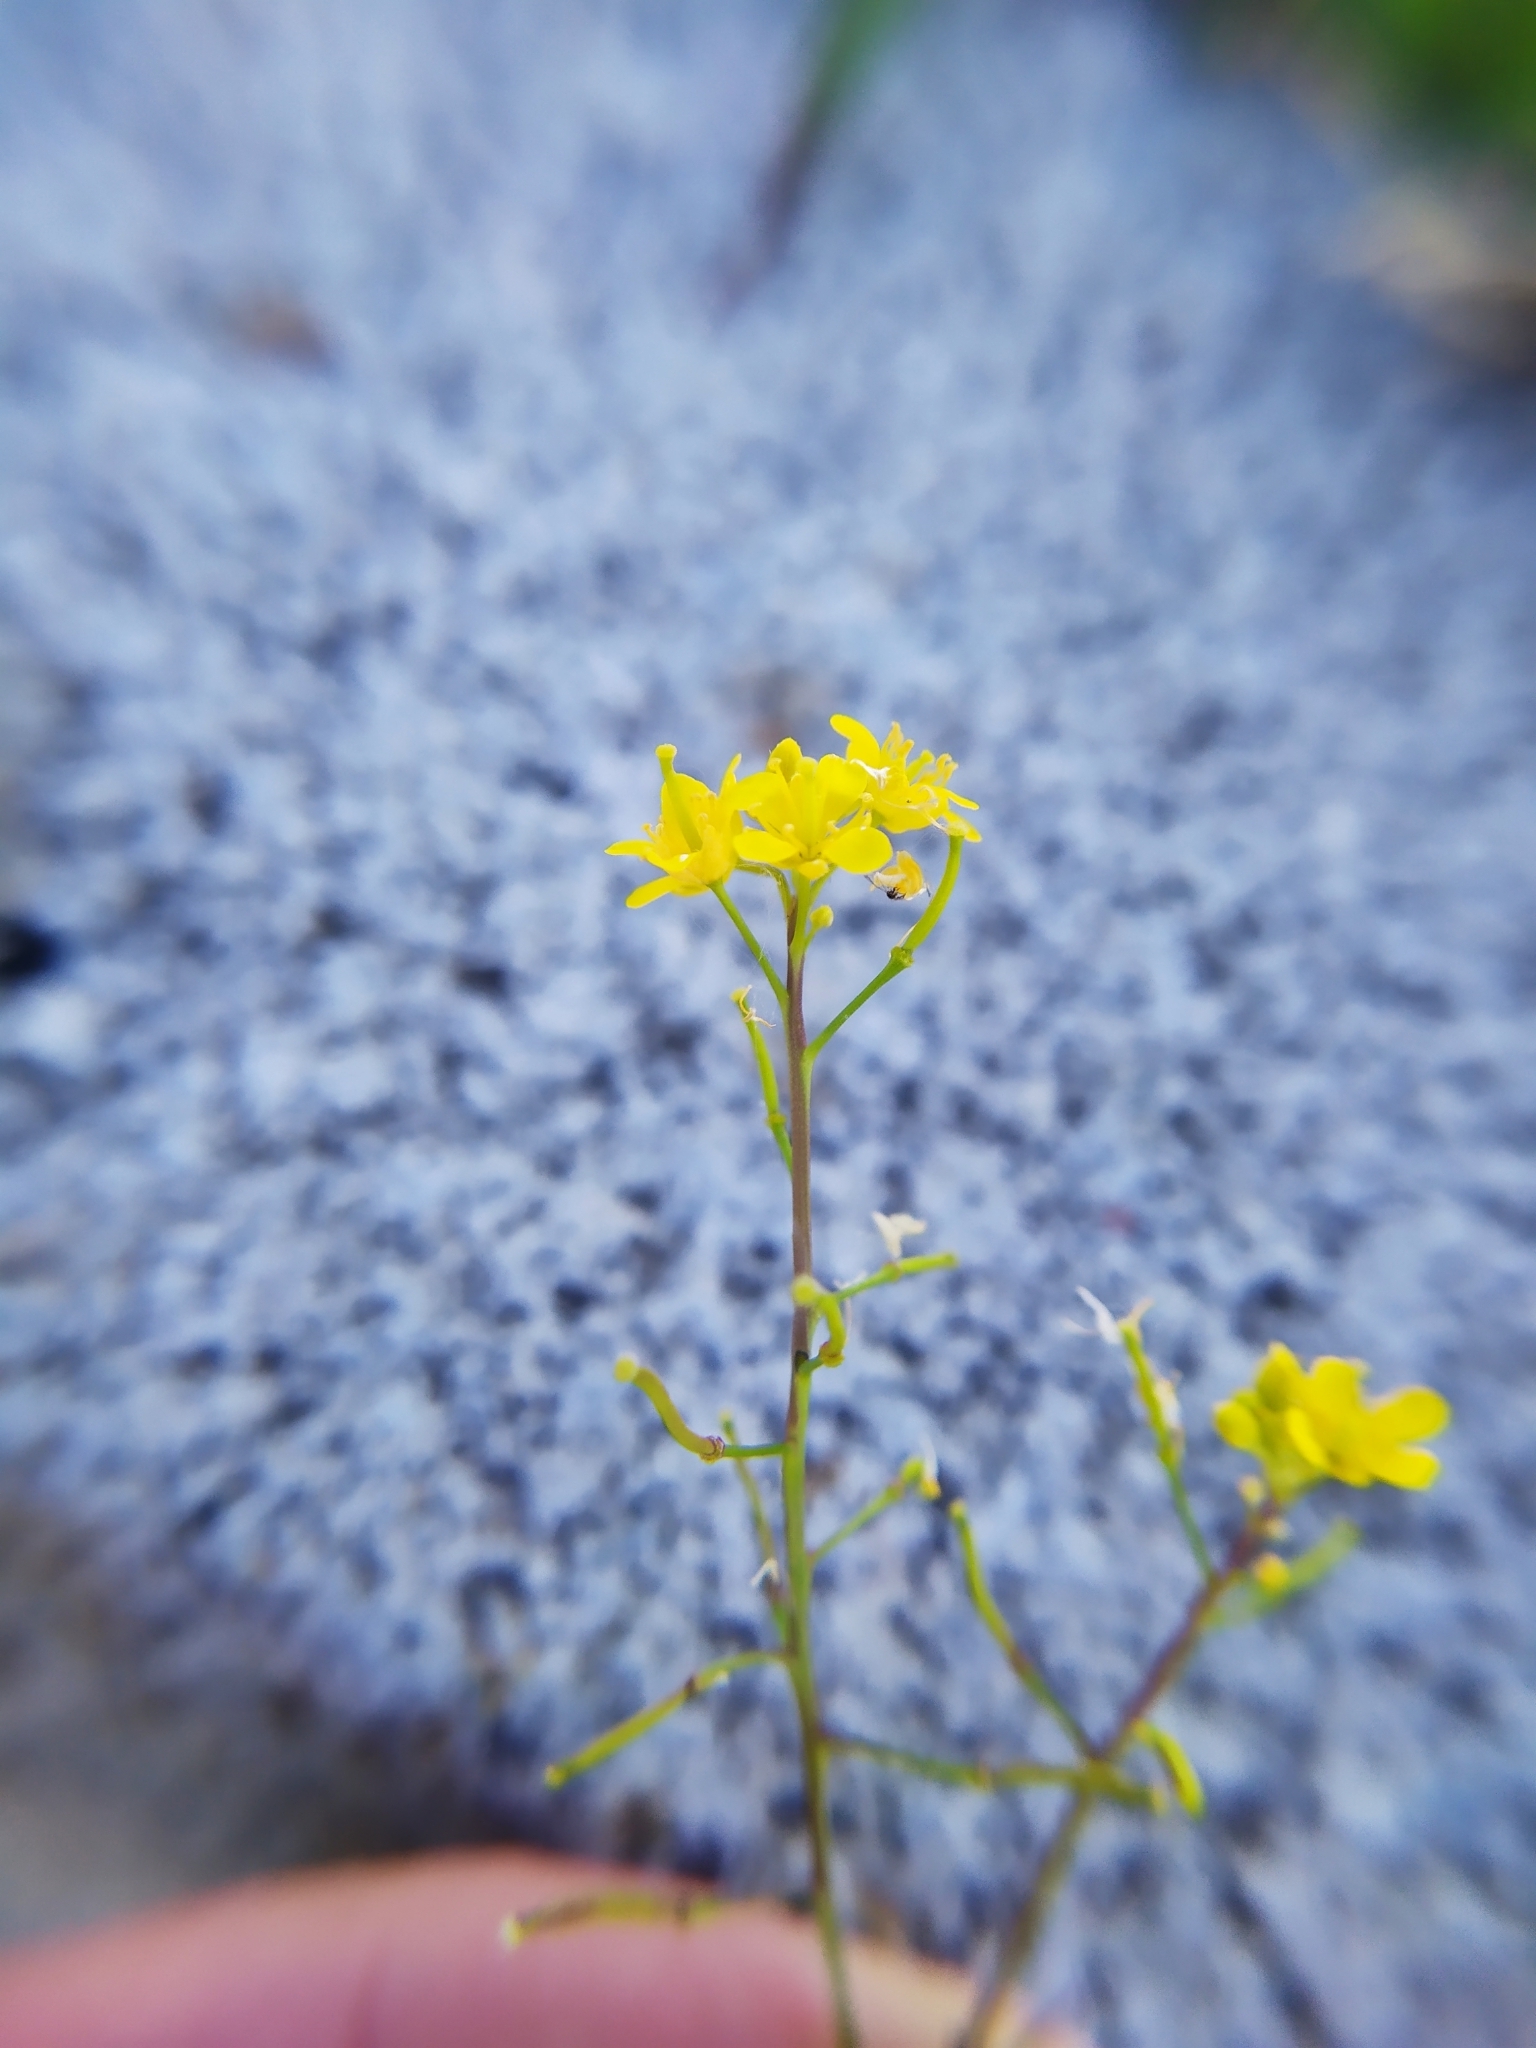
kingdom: Plantae
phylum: Tracheophyta
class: Magnoliopsida
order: Brassicales
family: Brassicaceae
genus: Rorippa
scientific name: Rorippa sylvestris
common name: Creeping yellowcress
